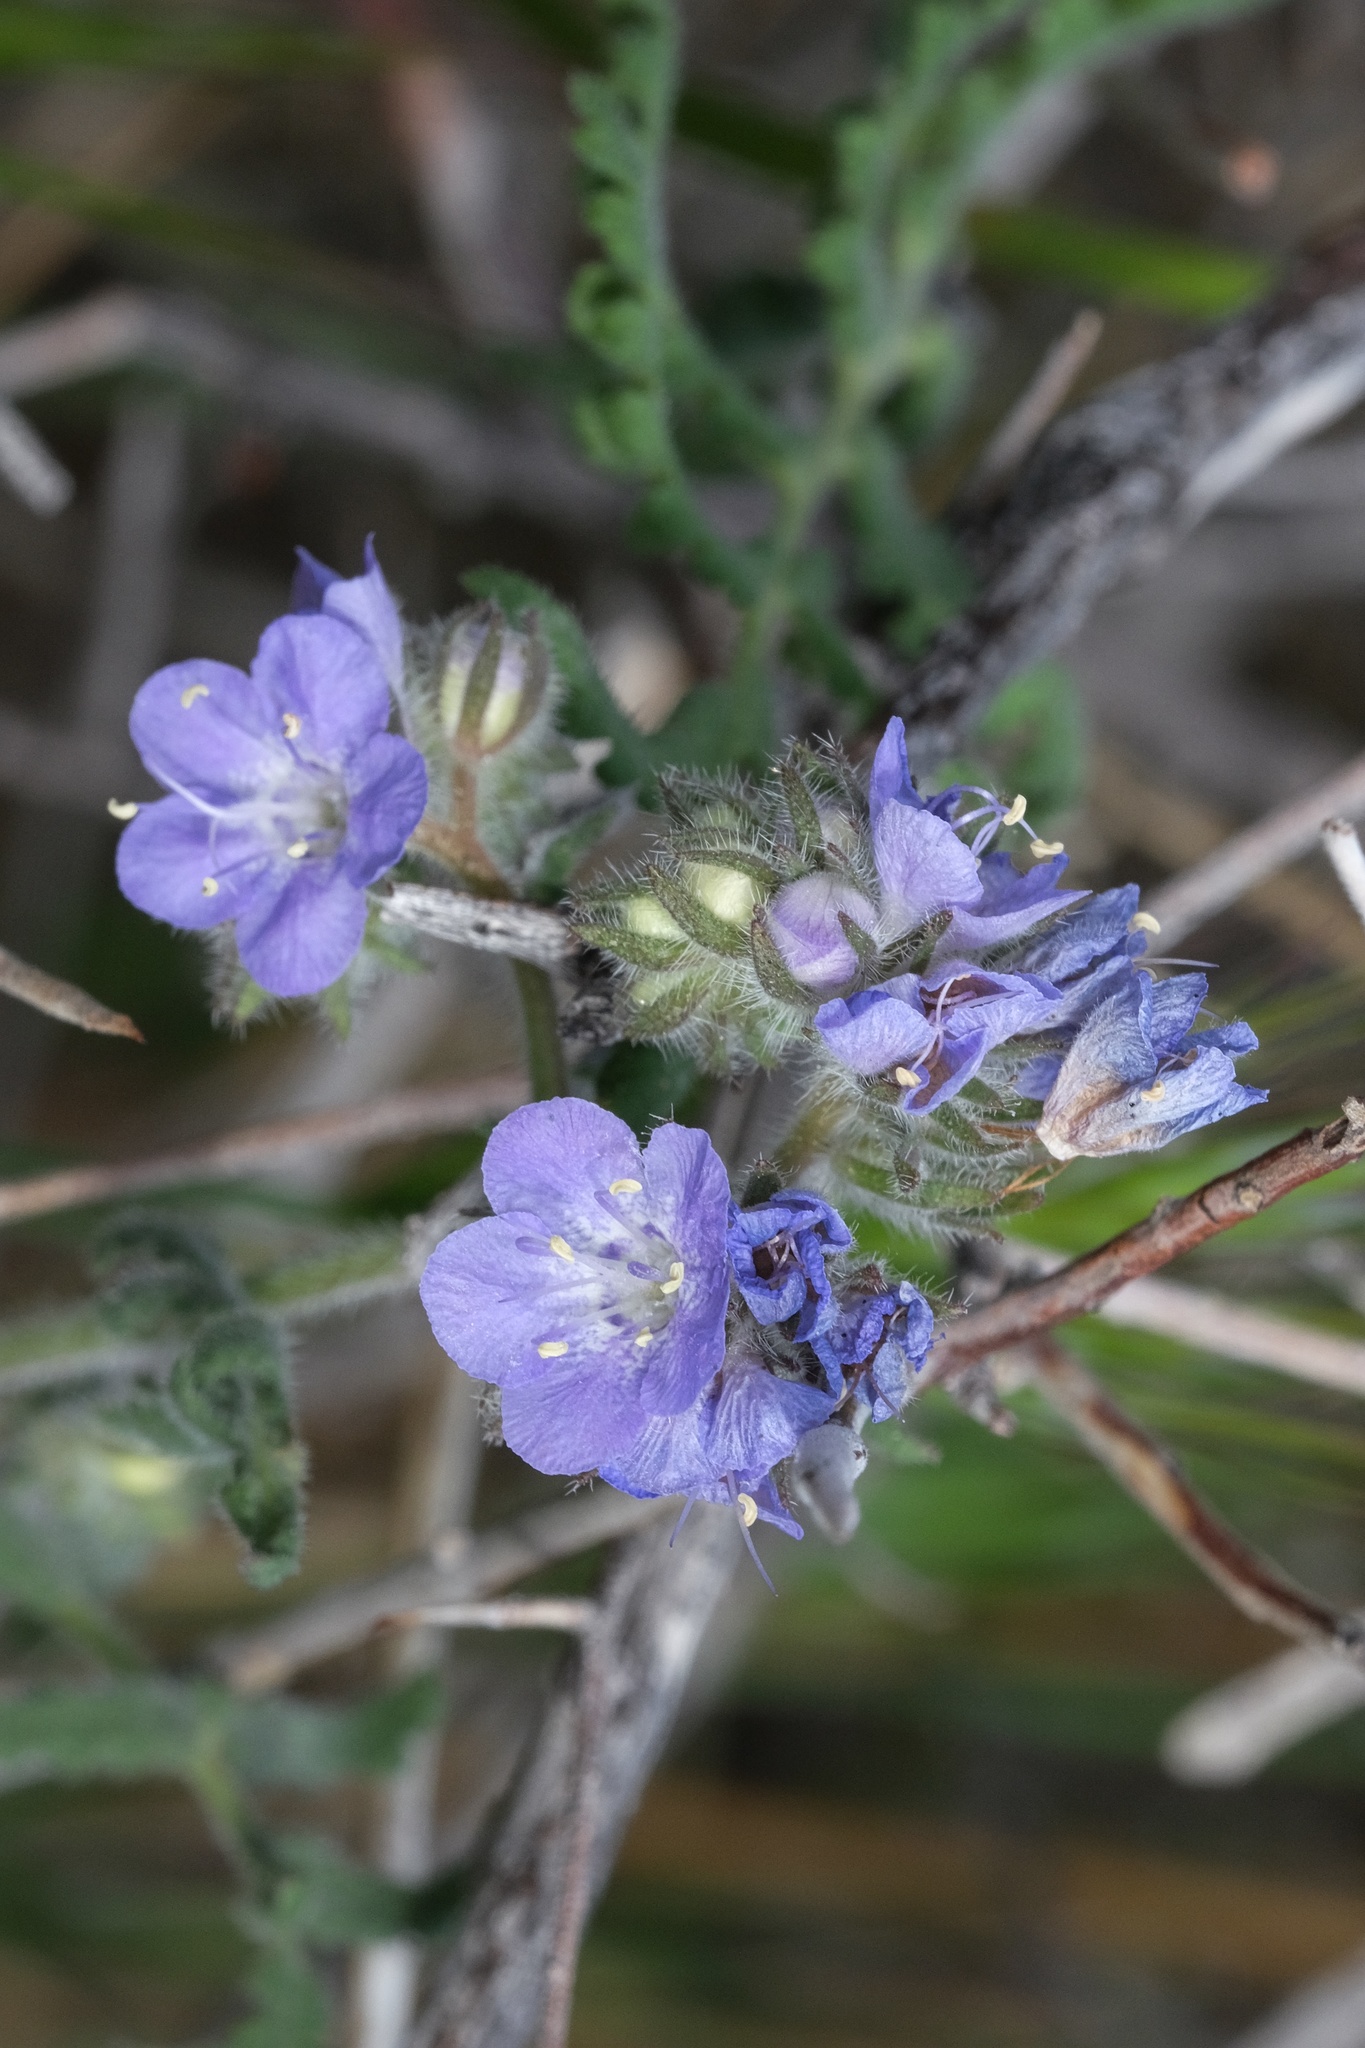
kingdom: Plantae
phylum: Tracheophyta
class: Magnoliopsida
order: Boraginales
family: Hydrophyllaceae
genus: Phacelia
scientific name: Phacelia distans
